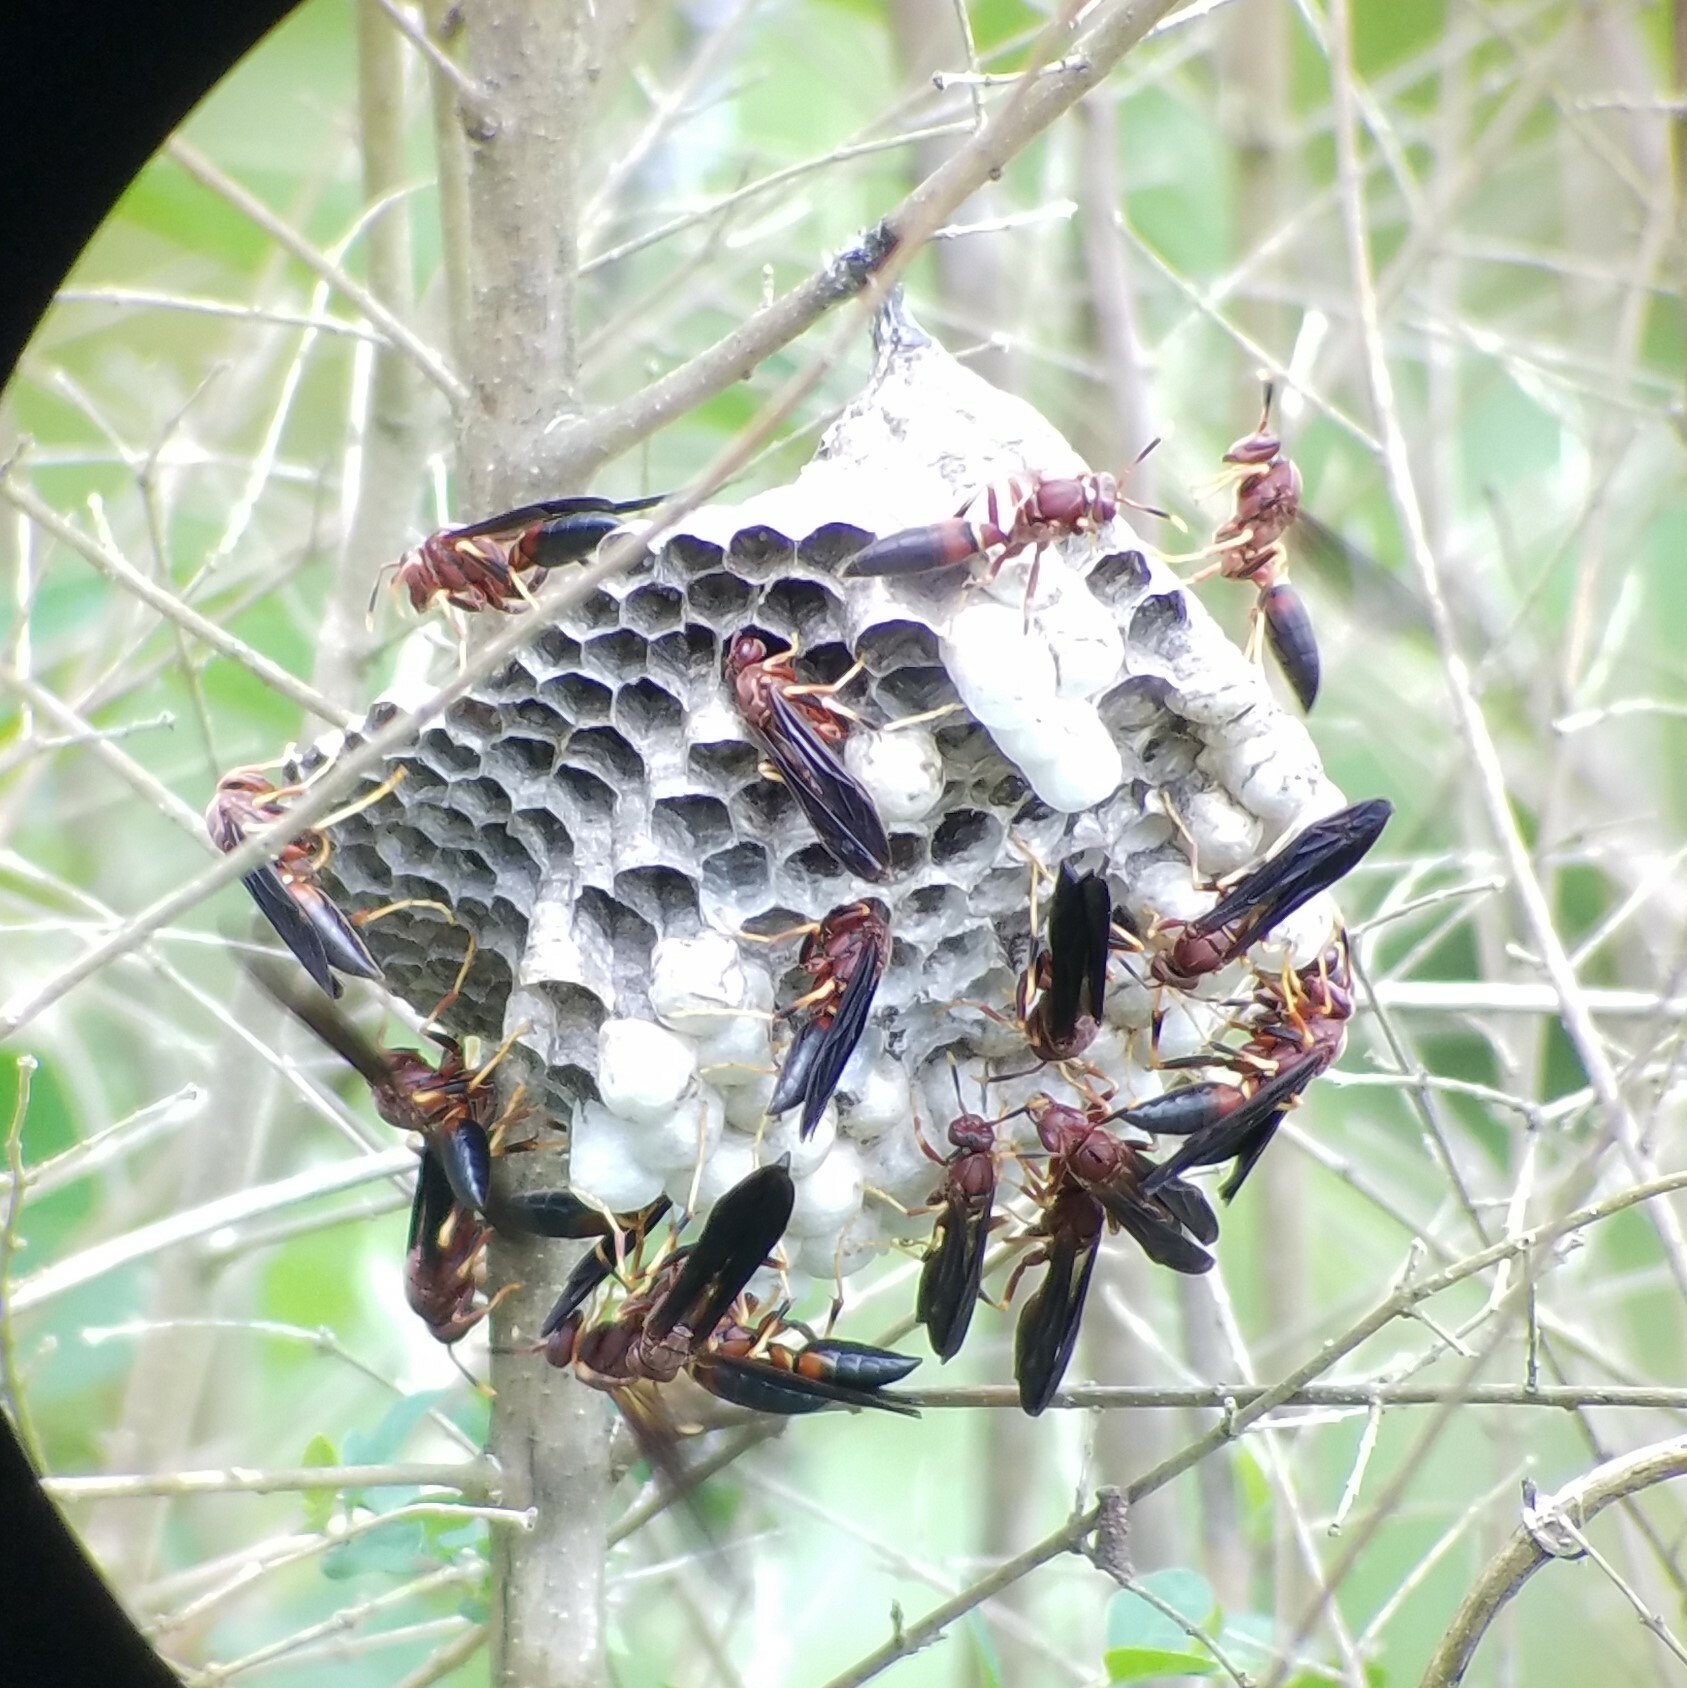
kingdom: Animalia
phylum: Arthropoda
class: Insecta
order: Hymenoptera
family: Eumenidae
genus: Polistes
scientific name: Polistes annularis
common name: Ringed paper wasp
